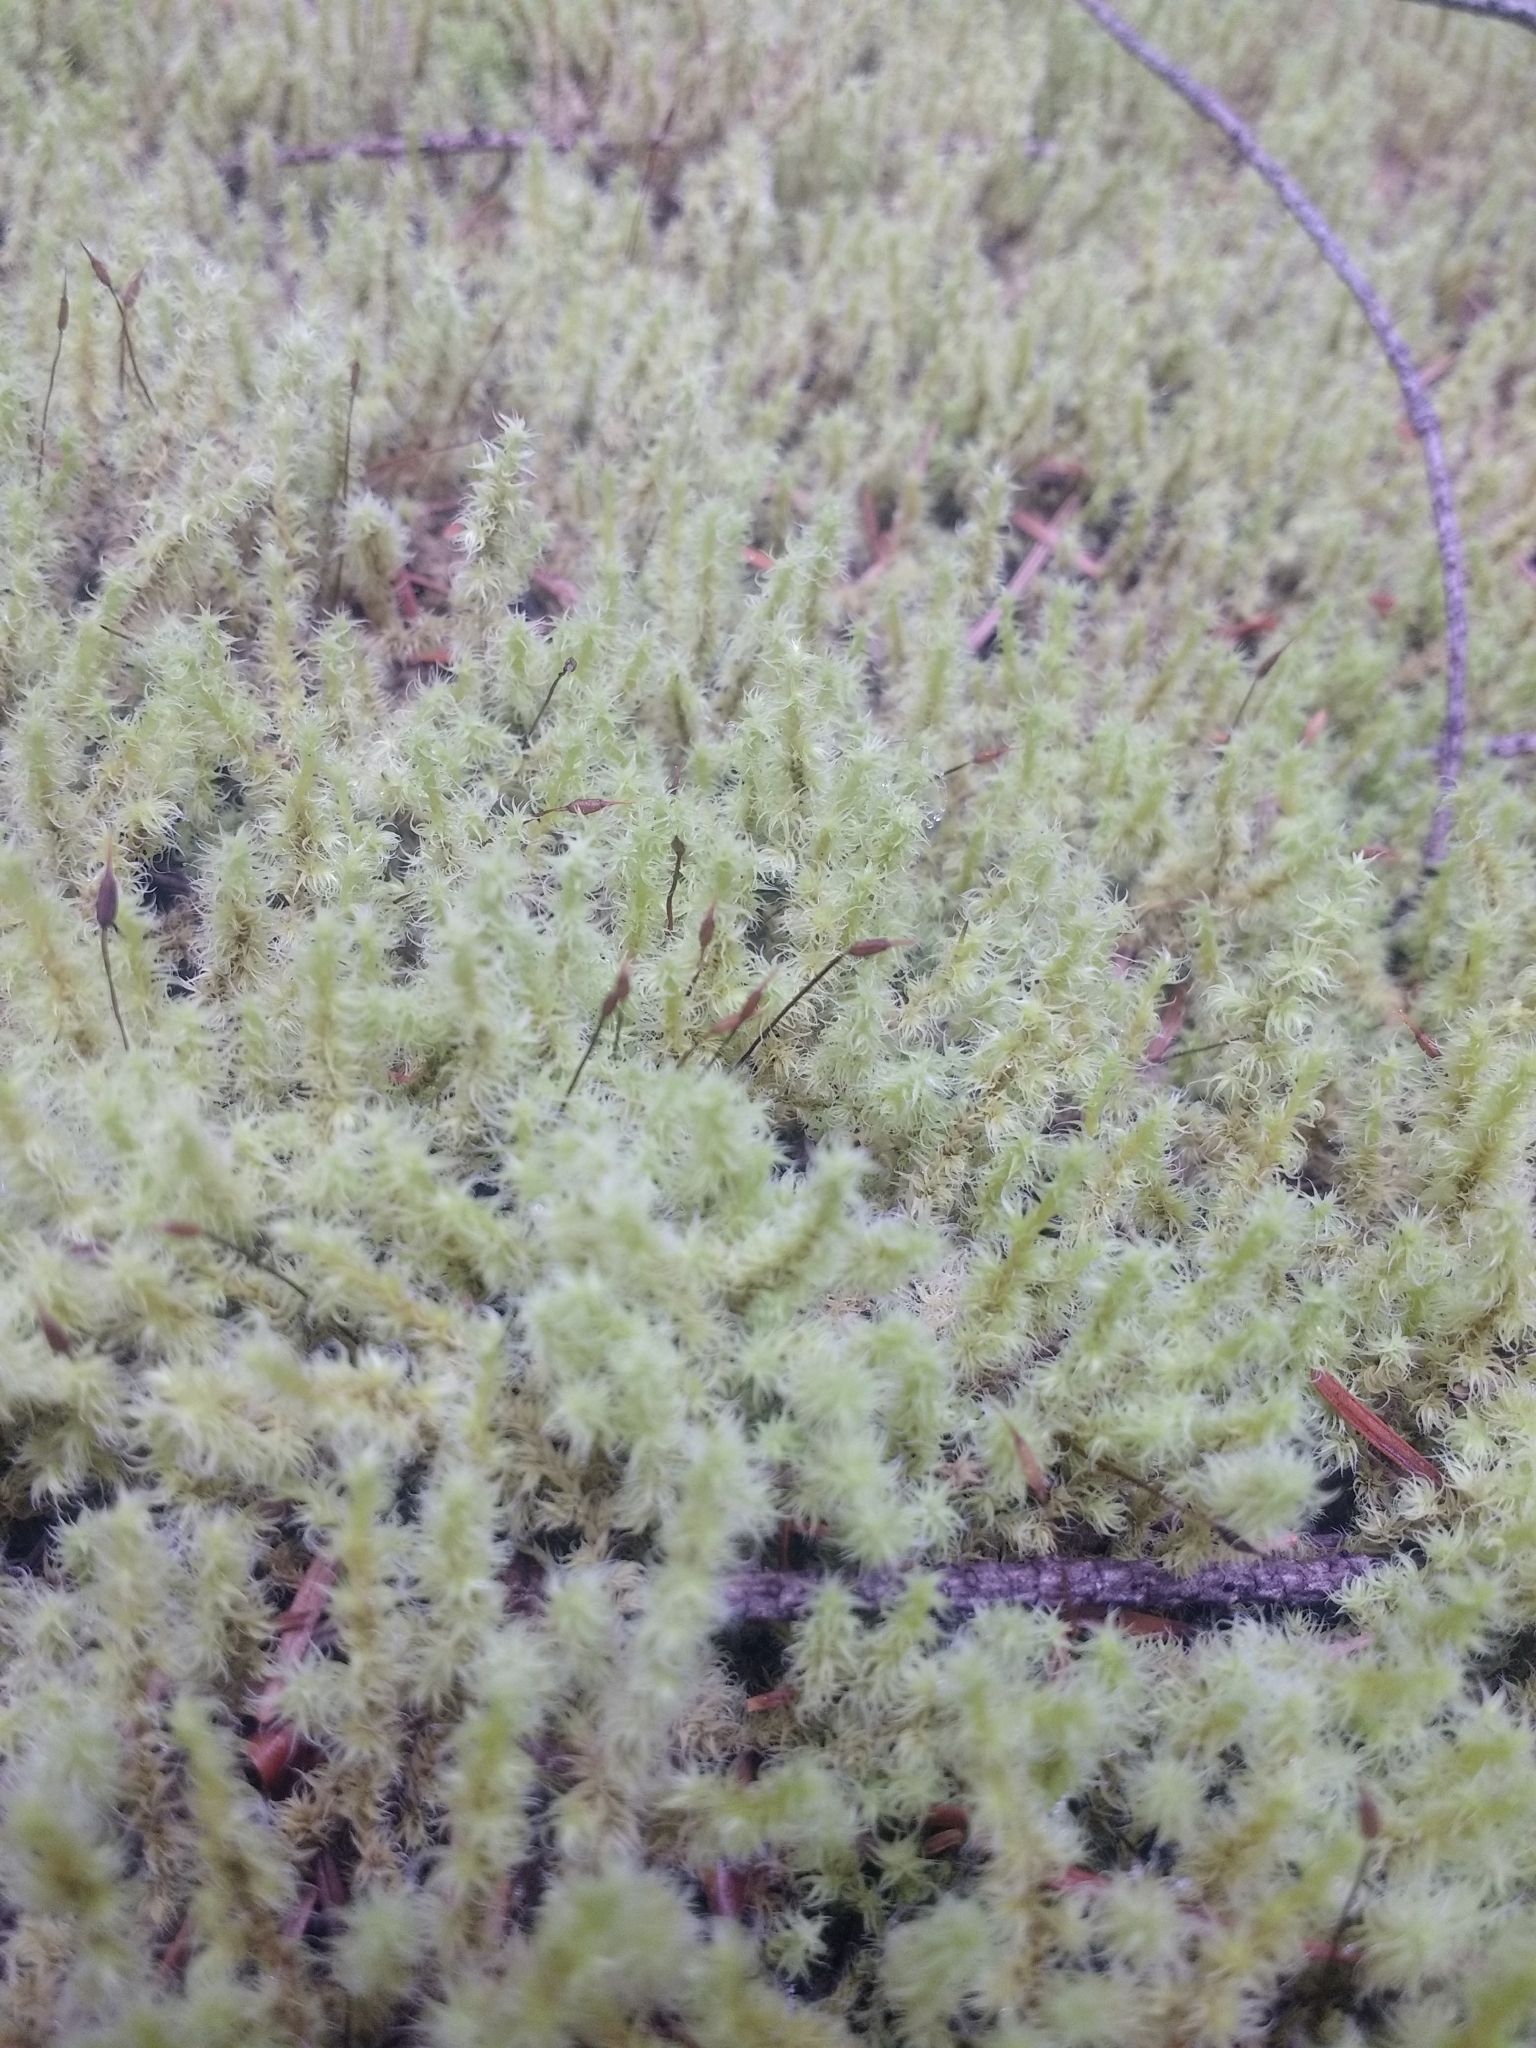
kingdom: Plantae
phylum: Bryophyta
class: Bryopsida
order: Grimmiales
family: Grimmiaceae
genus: Niphotrichum
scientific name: Niphotrichum elongatum
